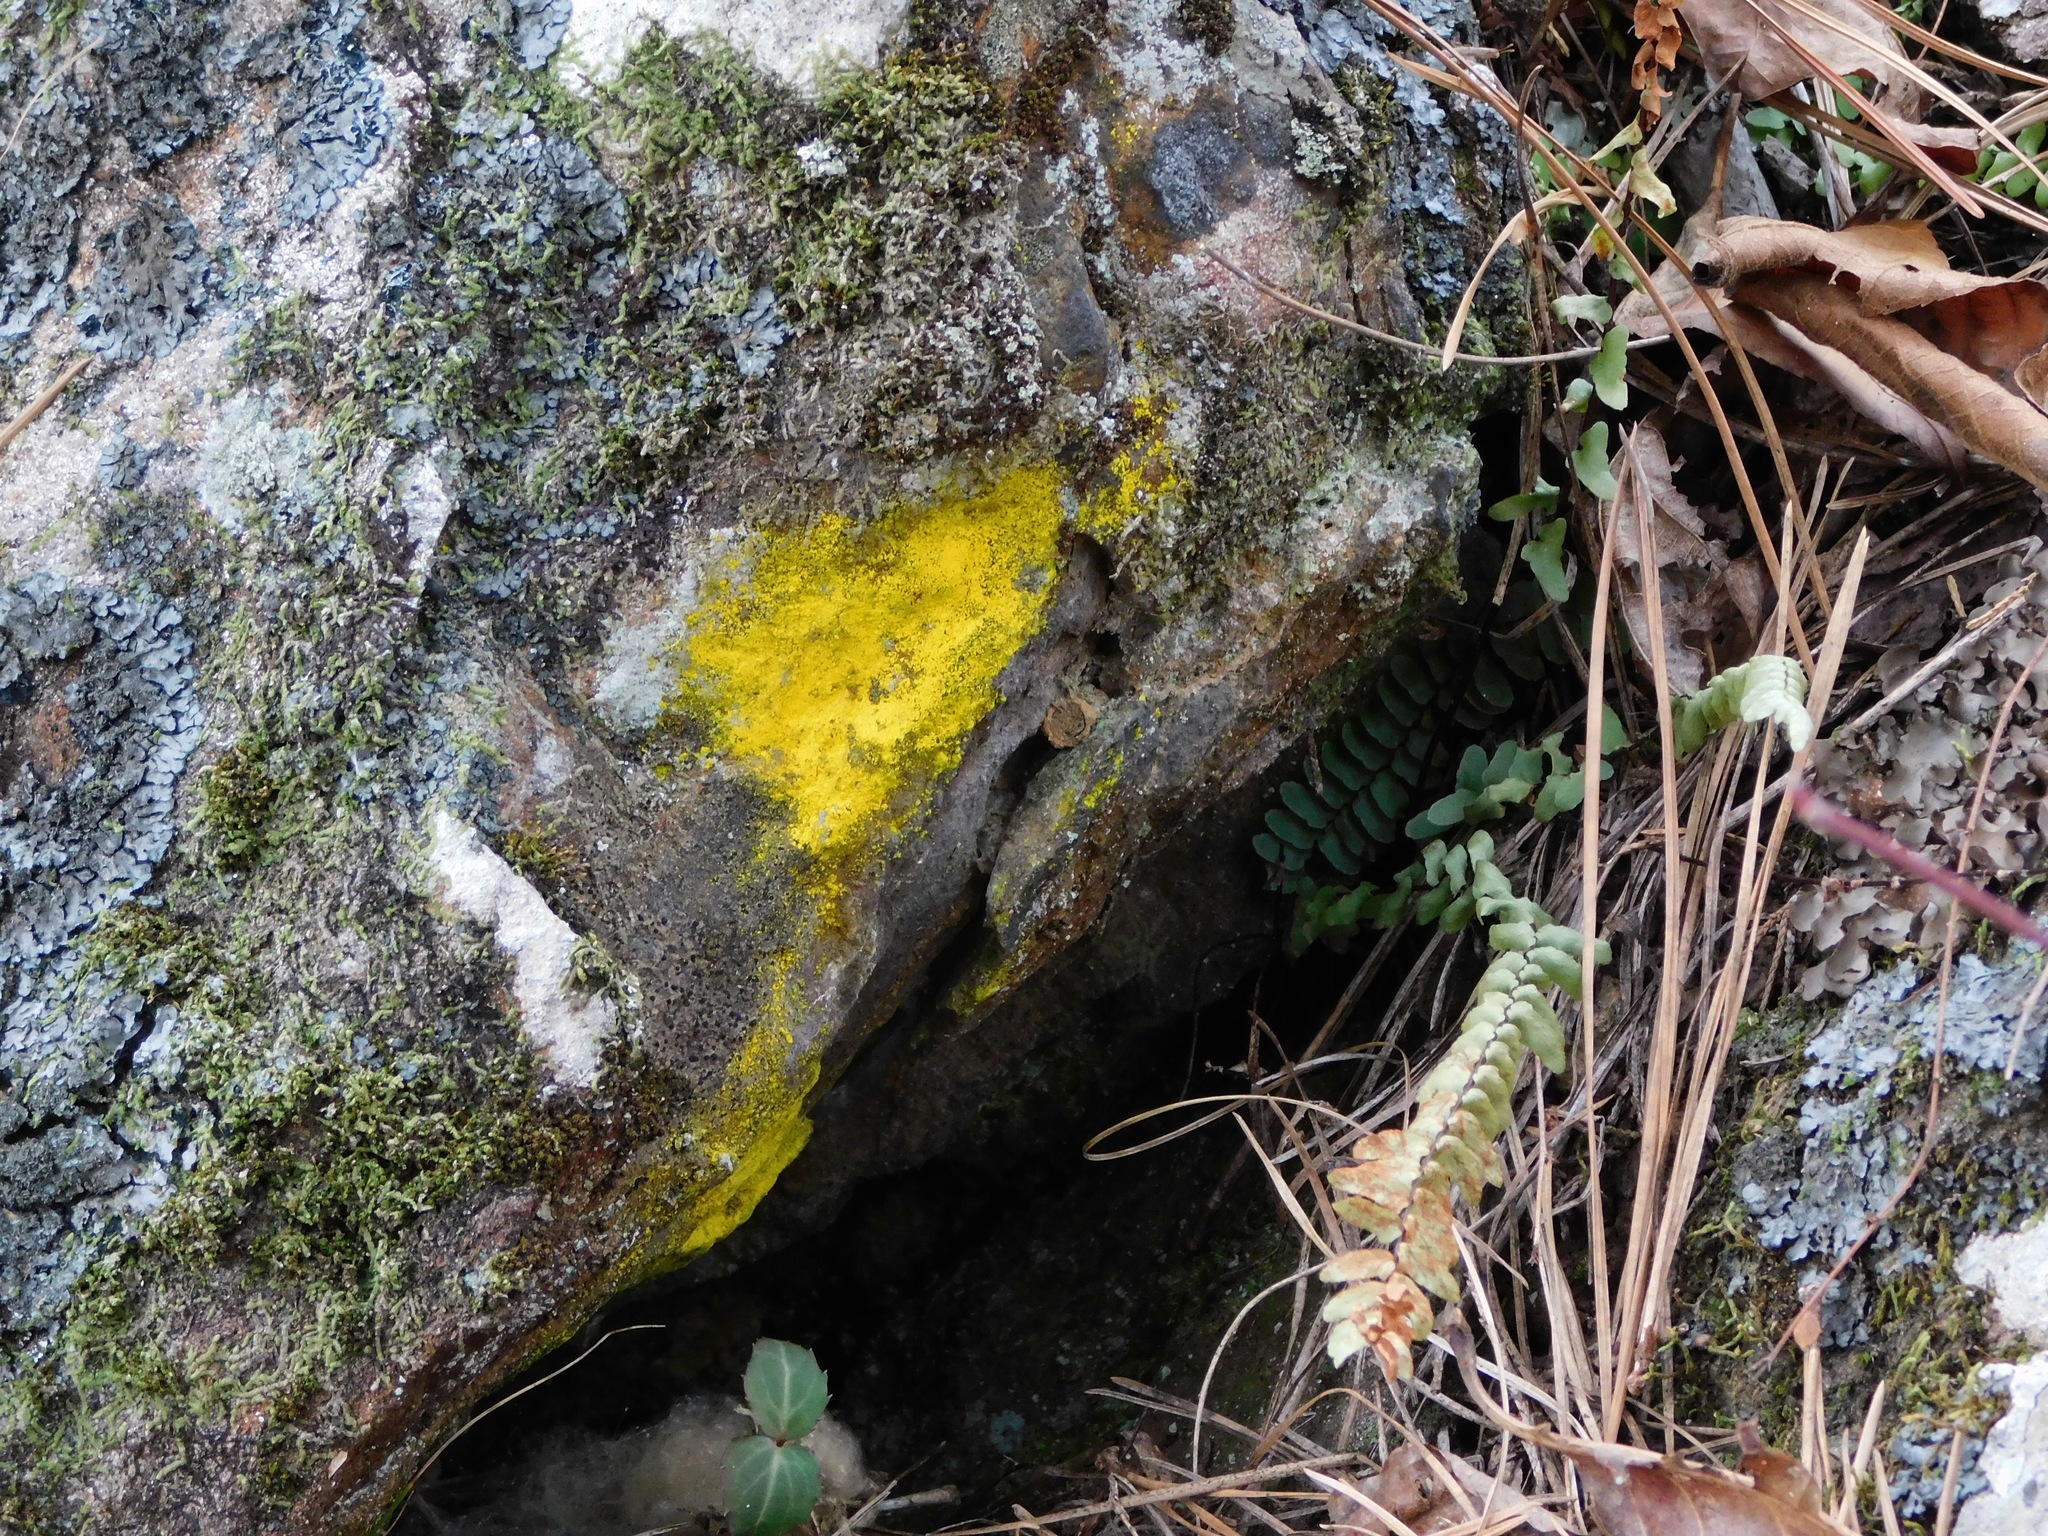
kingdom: Fungi
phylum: Ascomycota
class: Arthoniomycetes
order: Arthoniales
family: Chrysotrichaceae
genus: Chrysothrix
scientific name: Chrysothrix insulizans
